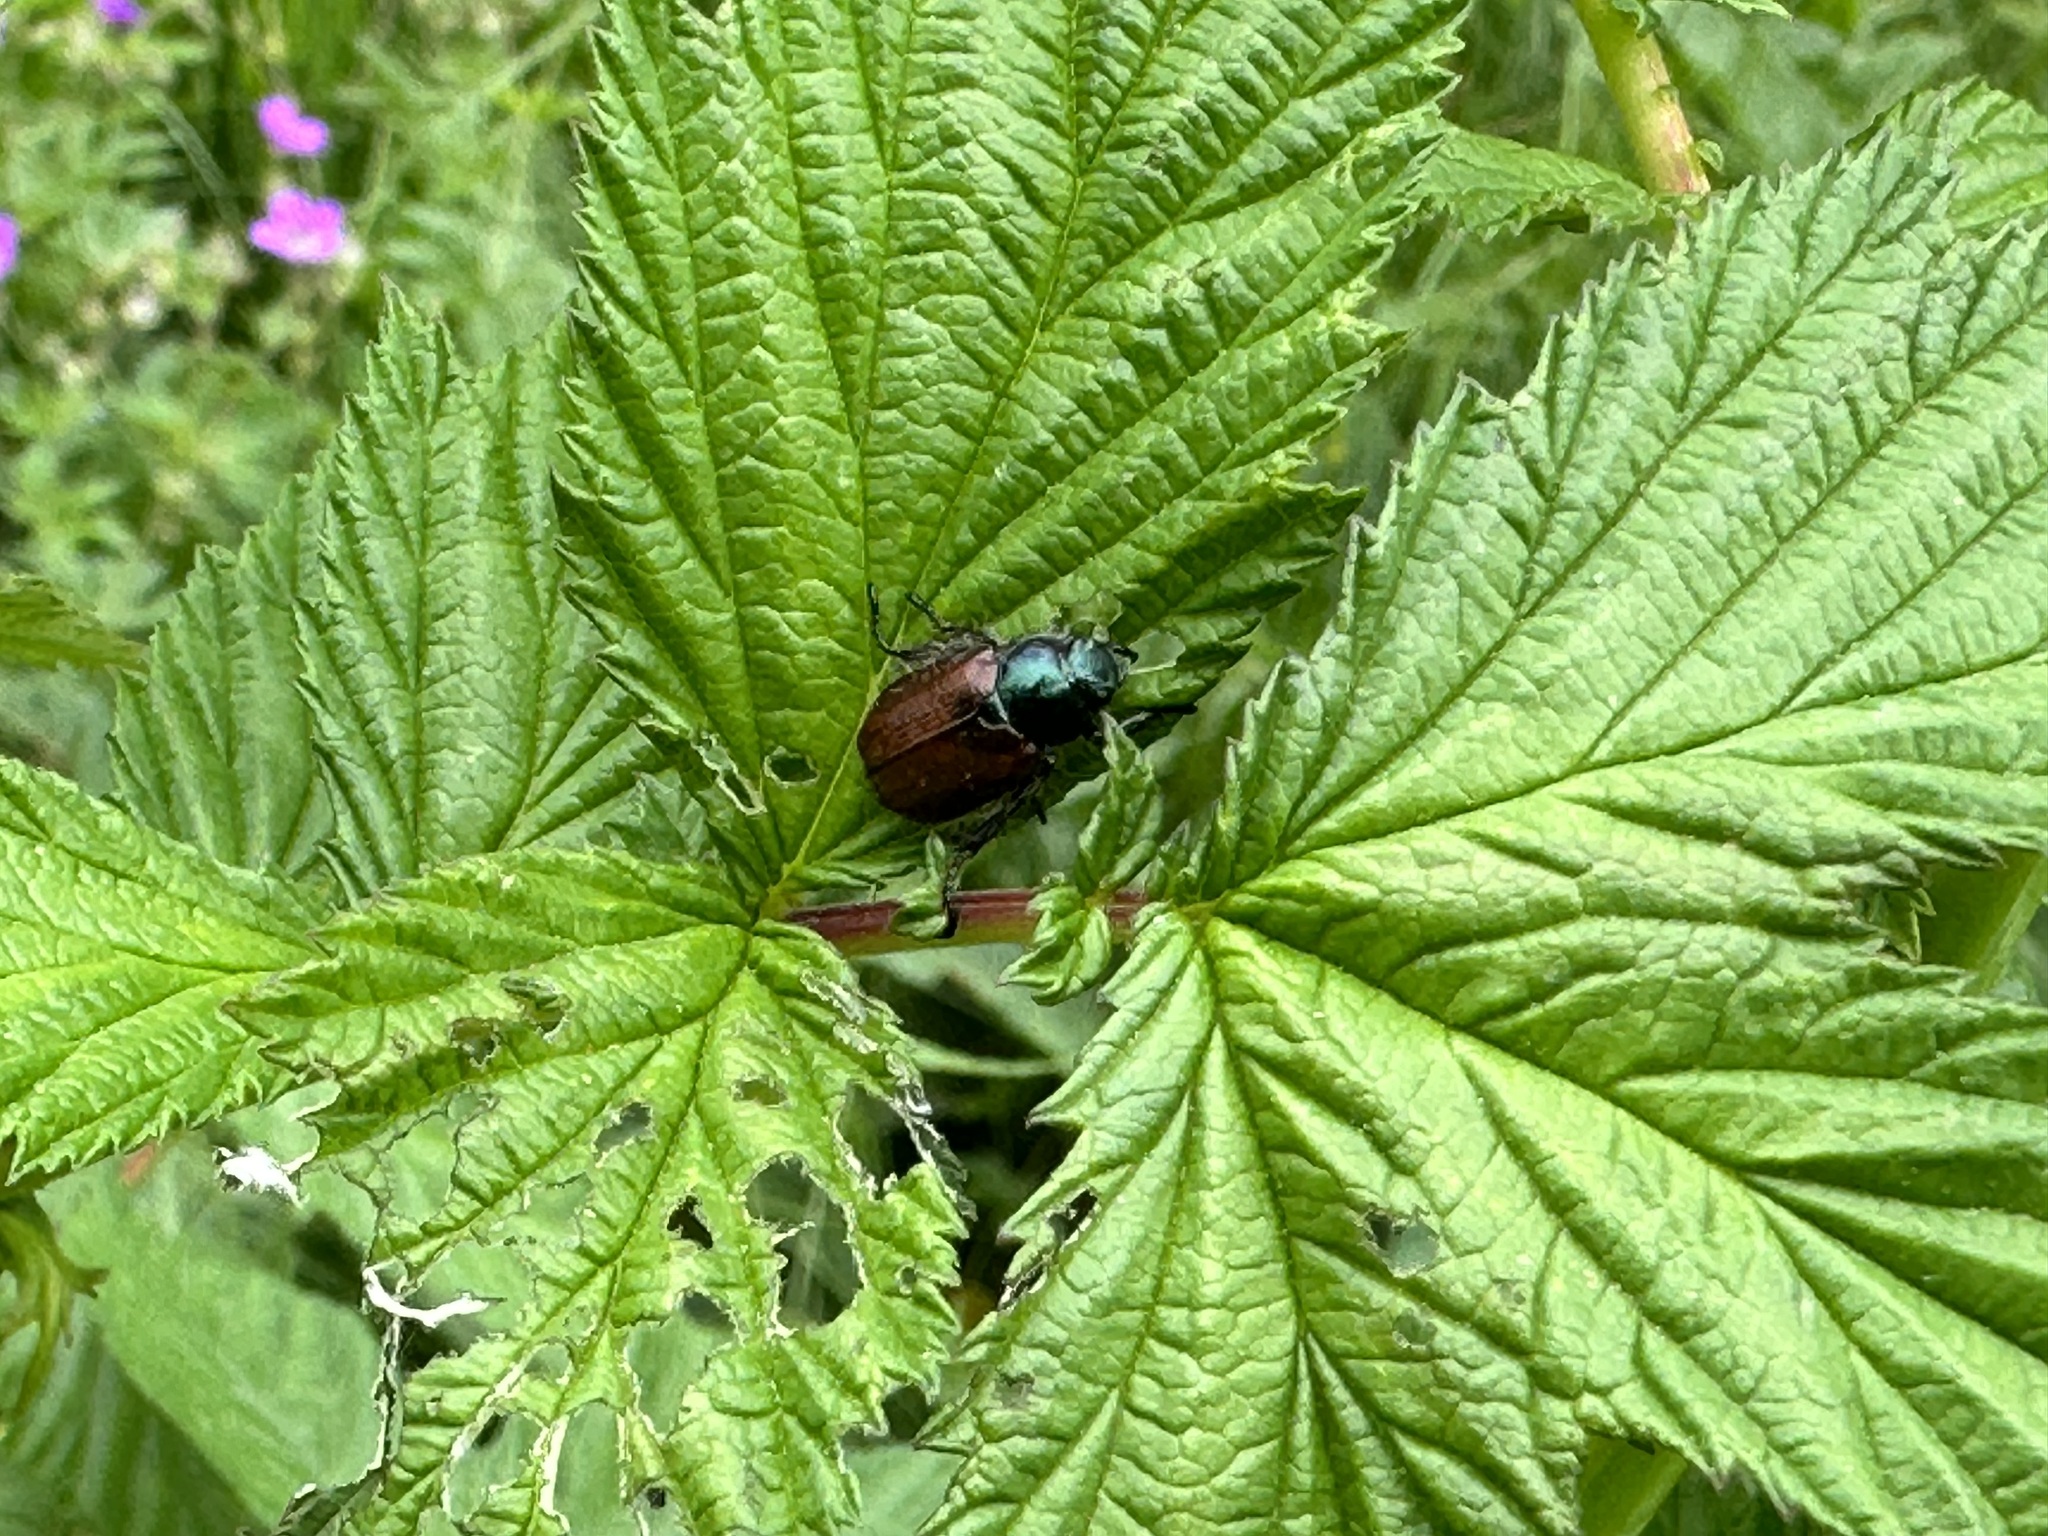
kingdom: Animalia
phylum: Arthropoda
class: Insecta
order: Coleoptera
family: Scarabaeidae
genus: Phyllopertha
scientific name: Phyllopertha horticola
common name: Garden chafer
